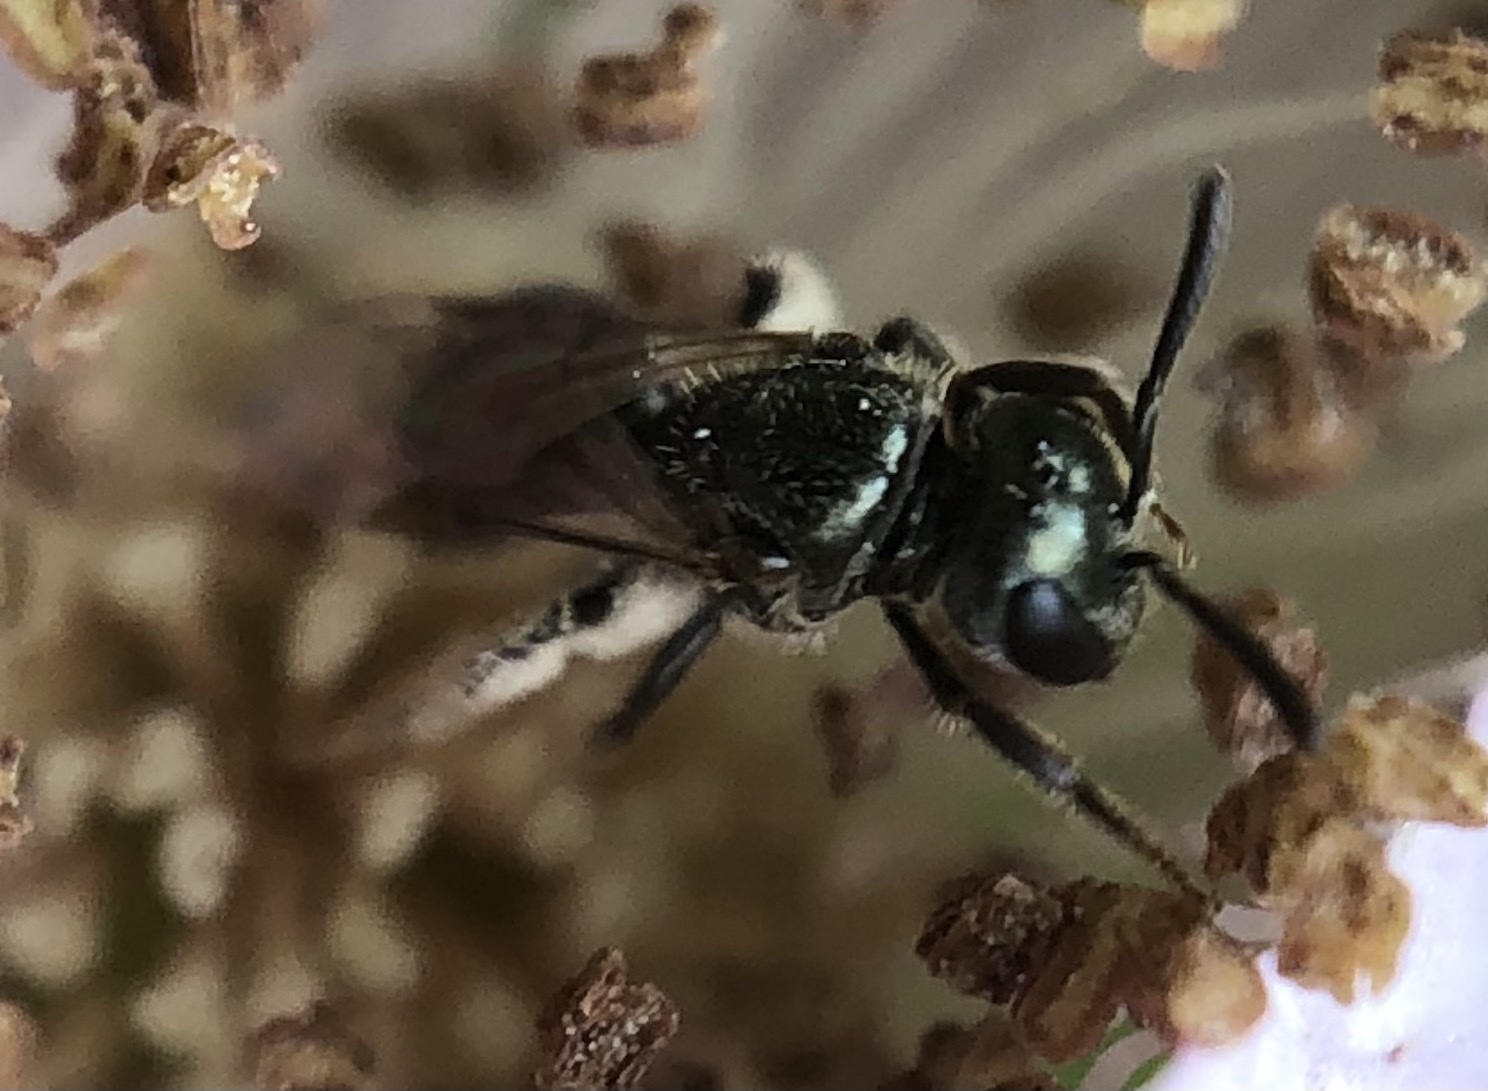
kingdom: Animalia
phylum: Arthropoda
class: Insecta
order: Hymenoptera
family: Halictidae
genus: Lasioglossum
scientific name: Lasioglossum imitatum
